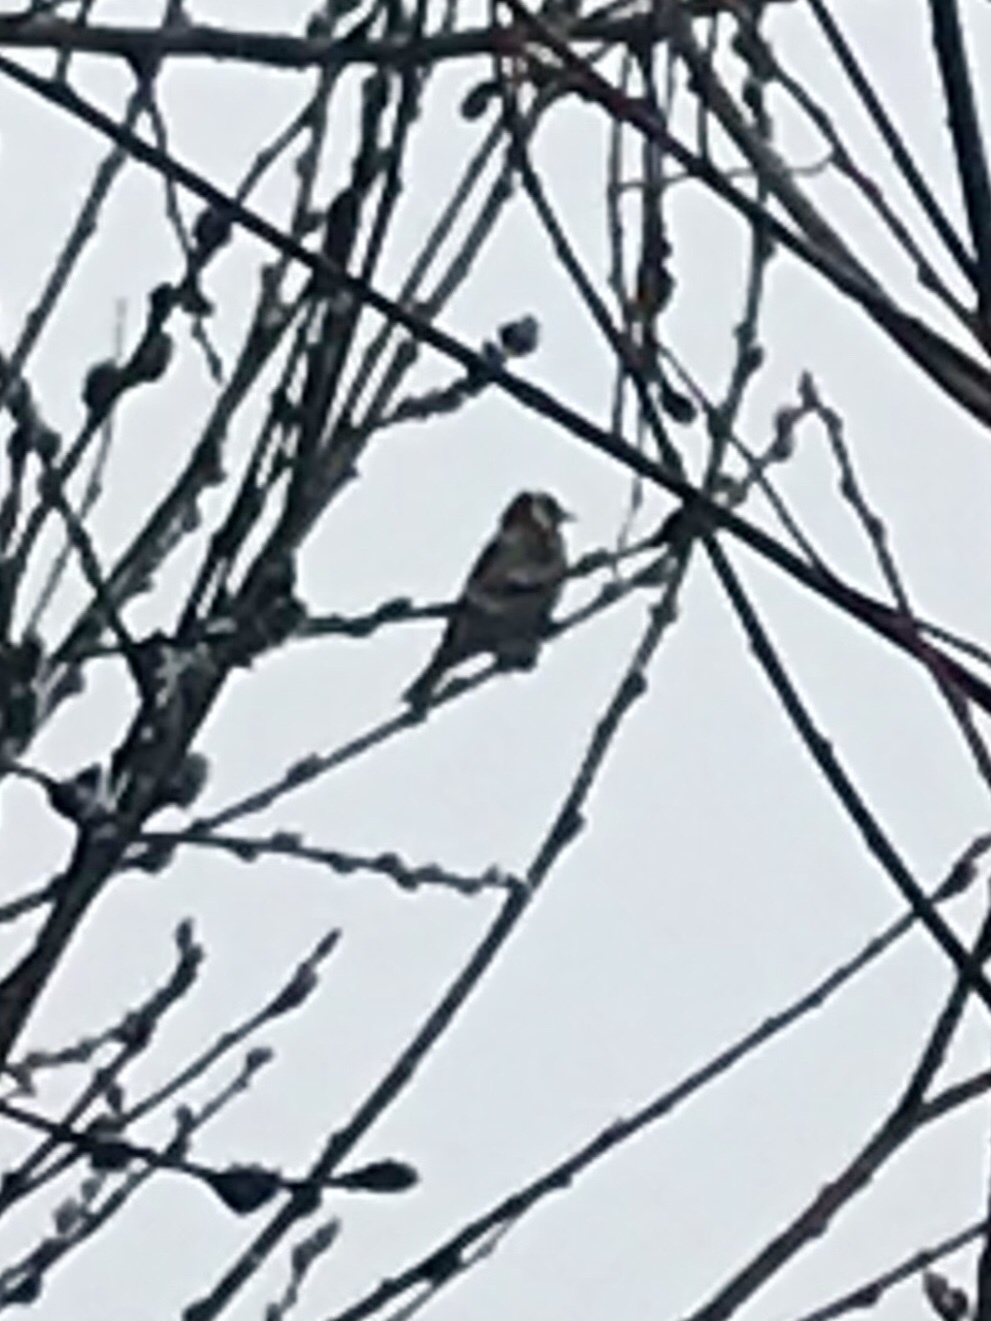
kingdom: Animalia
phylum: Chordata
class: Aves
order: Passeriformes
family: Fringillidae
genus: Carduelis
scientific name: Carduelis carduelis
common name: European goldfinch
